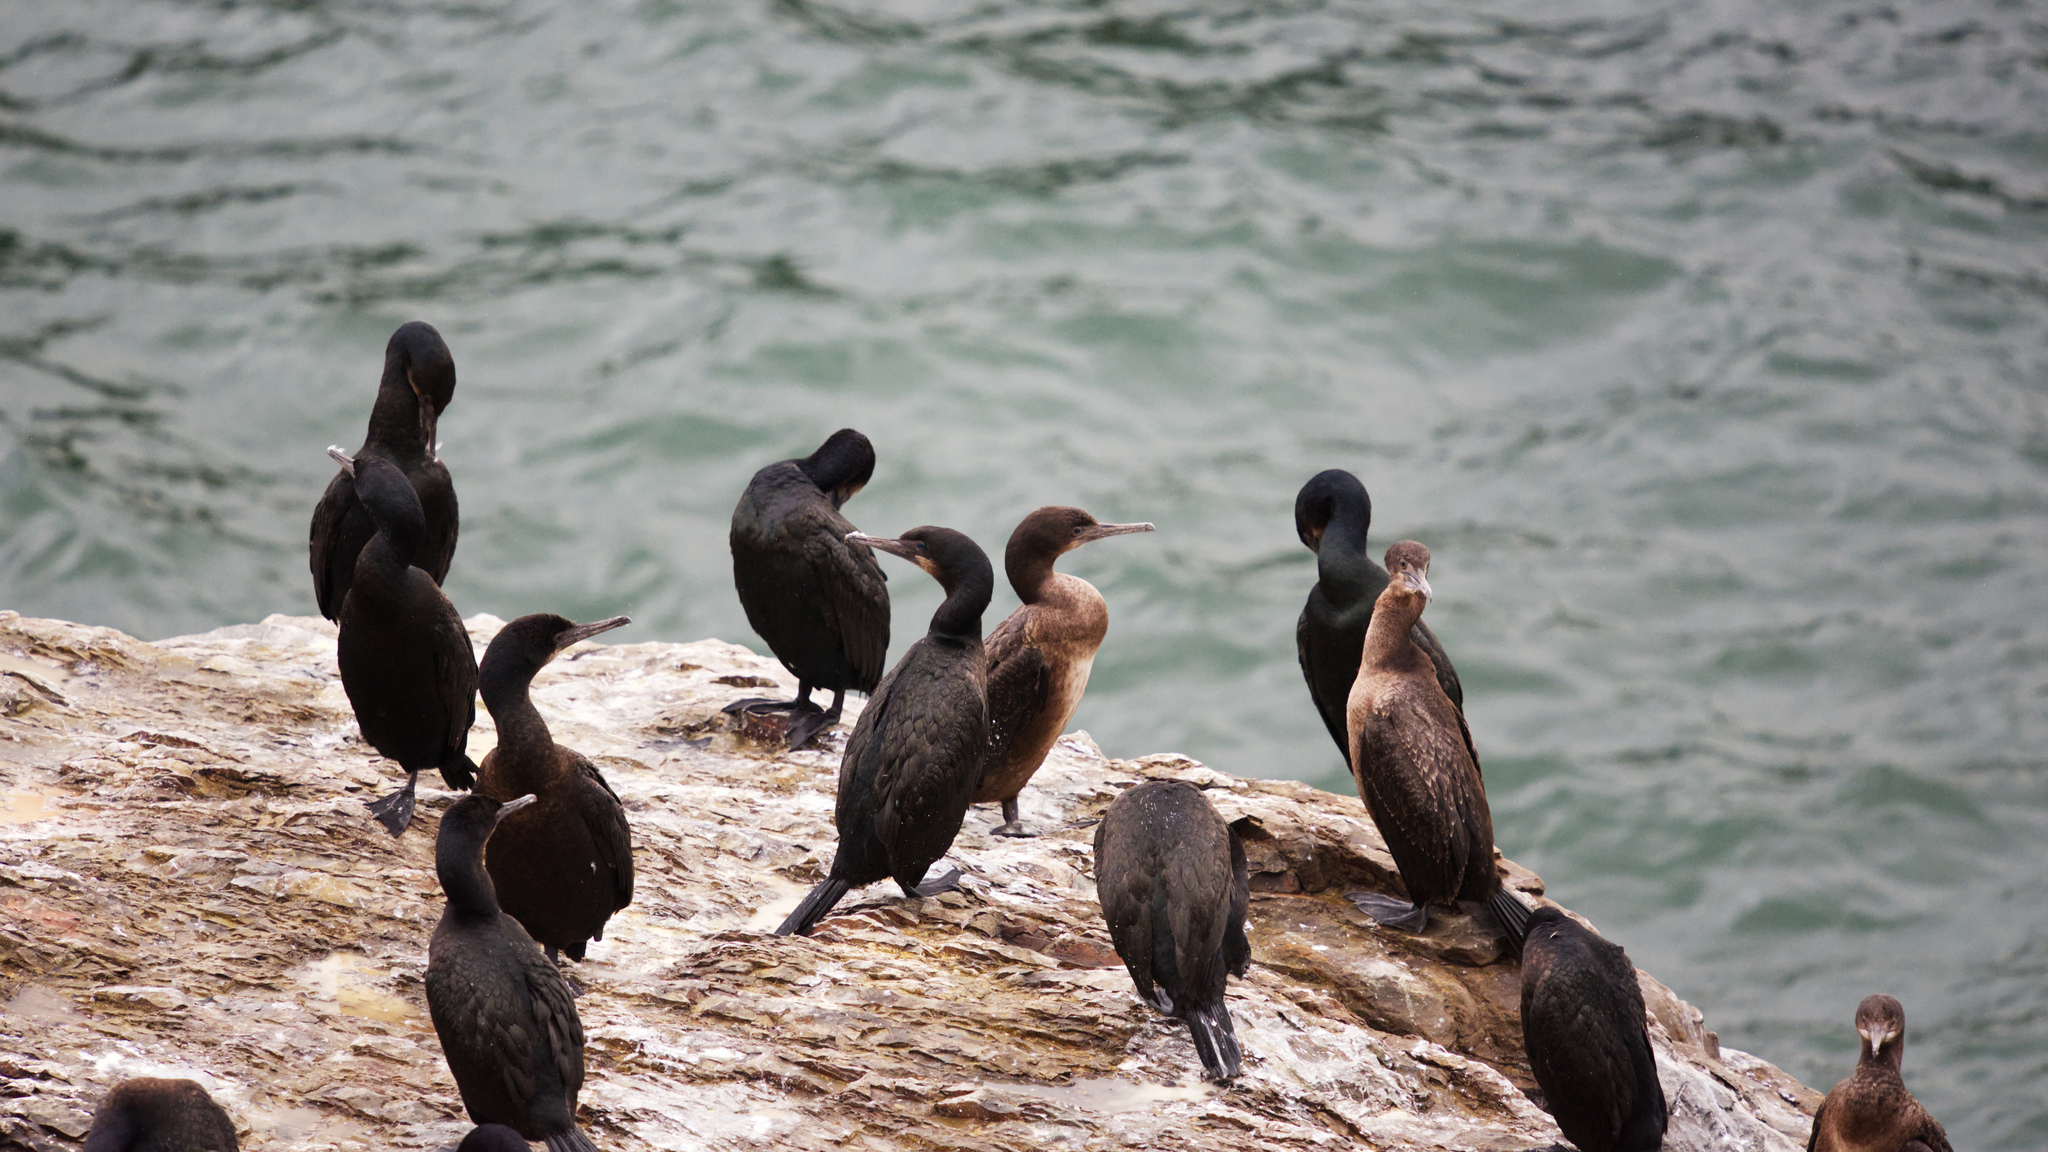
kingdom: Animalia
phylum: Chordata
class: Aves
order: Suliformes
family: Phalacrocoracidae
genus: Urile
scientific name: Urile penicillatus
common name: Brandt's cormorant
